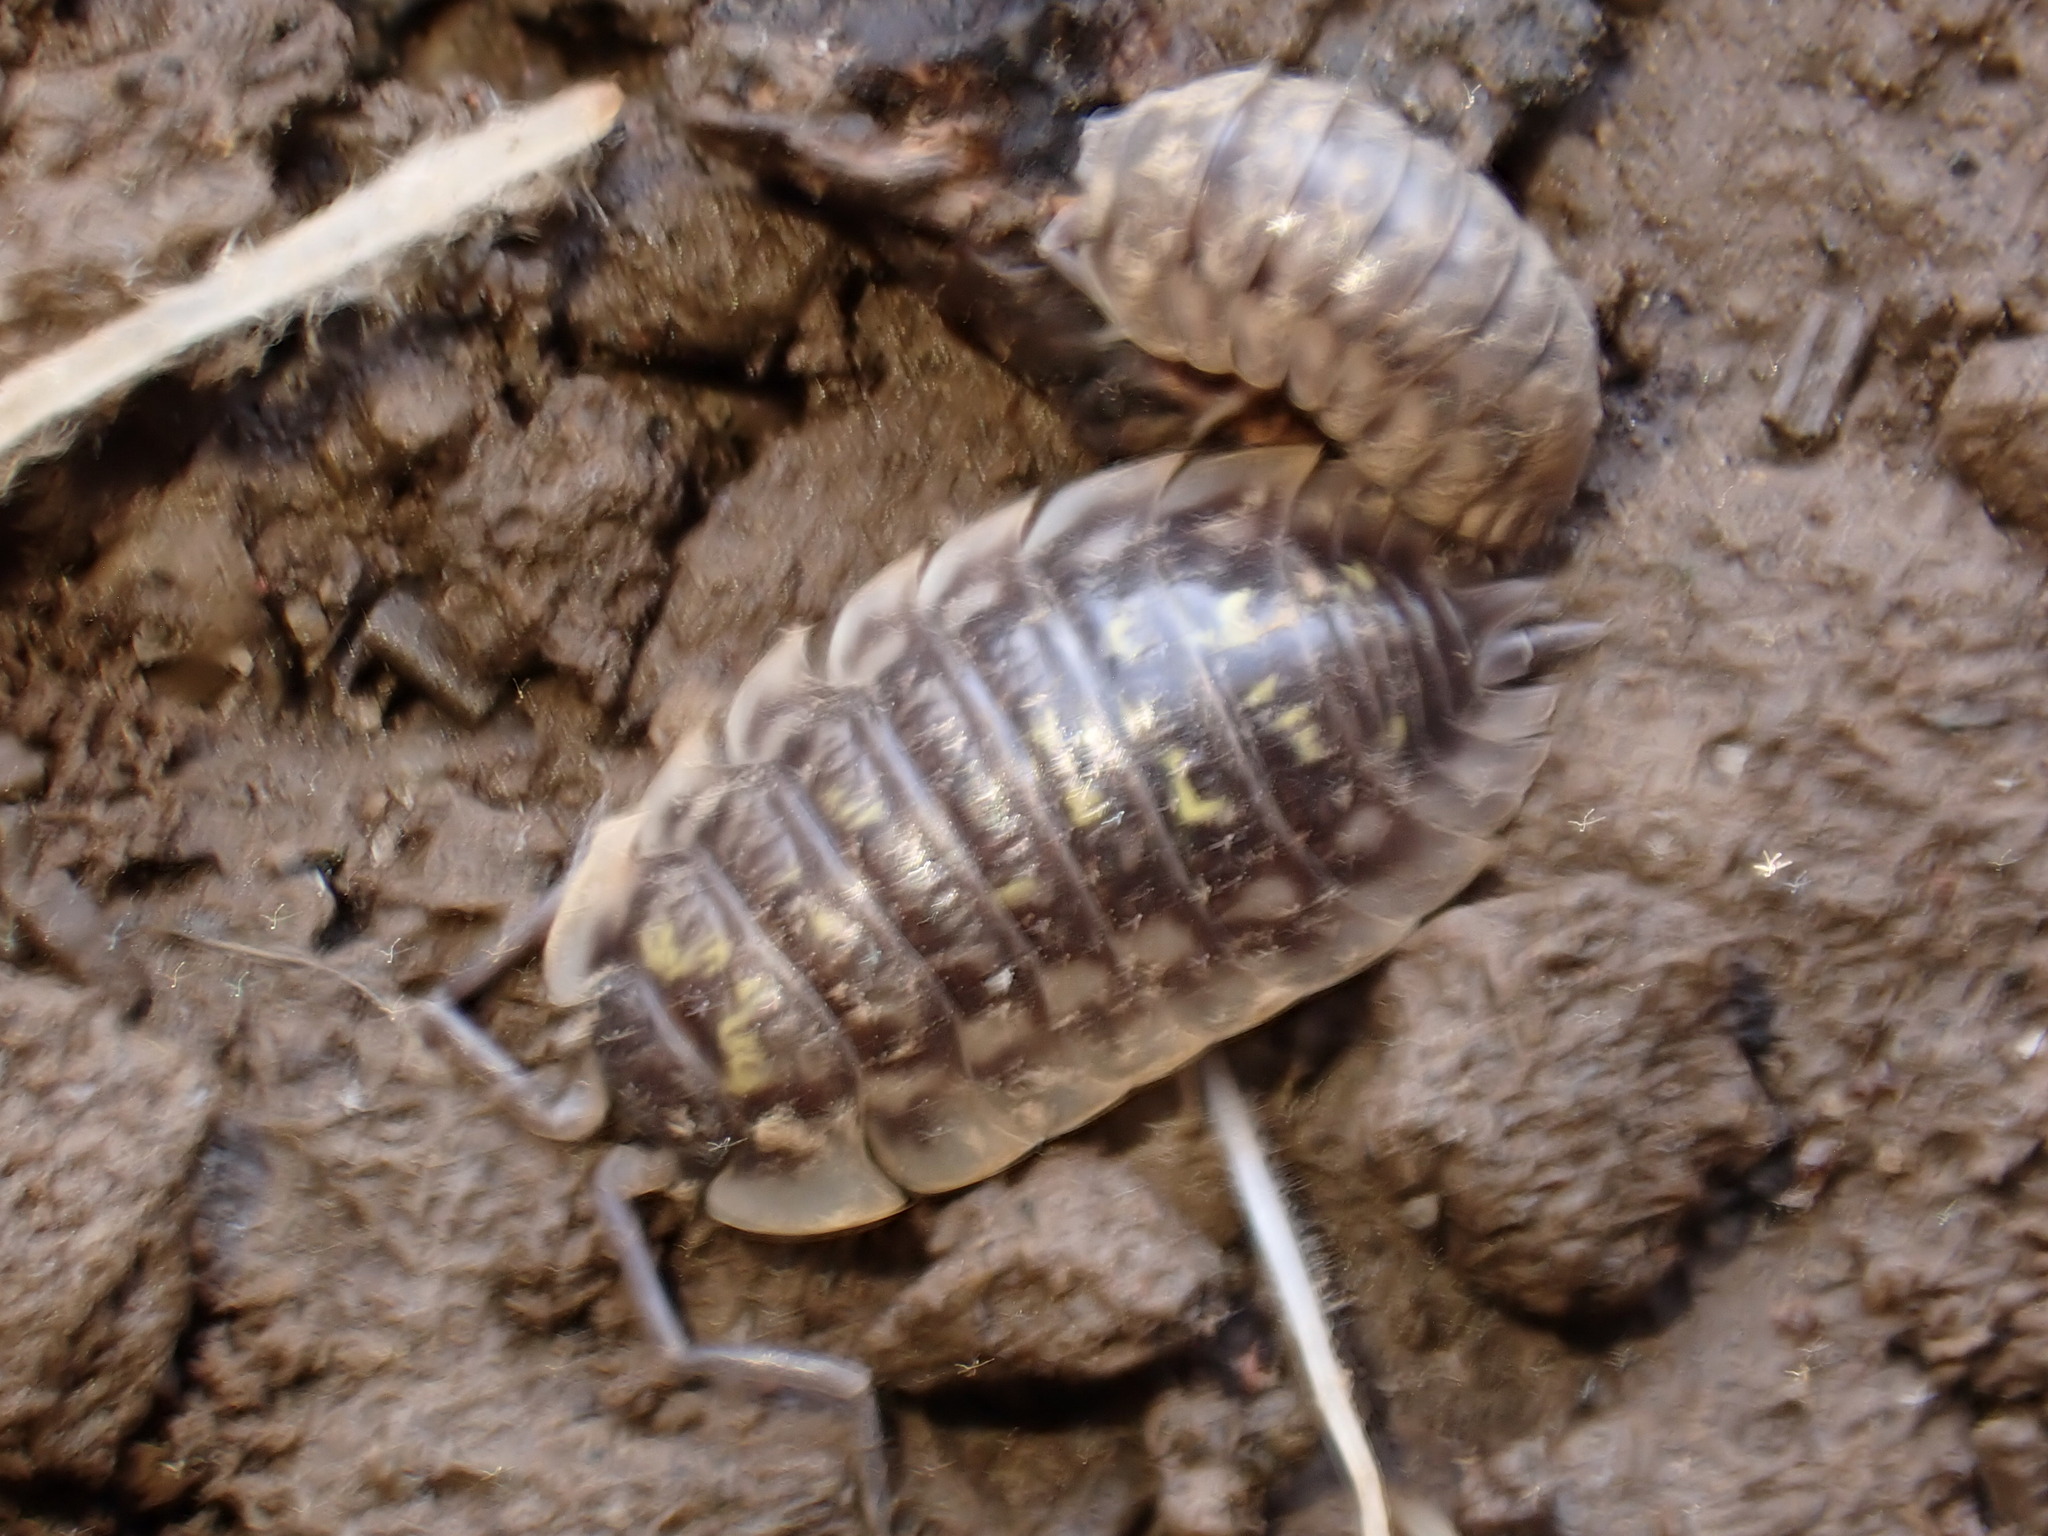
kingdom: Animalia
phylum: Arthropoda
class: Malacostraca
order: Isopoda
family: Oniscidae
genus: Oniscus
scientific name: Oniscus asellus
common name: Common shiny woodlouse
